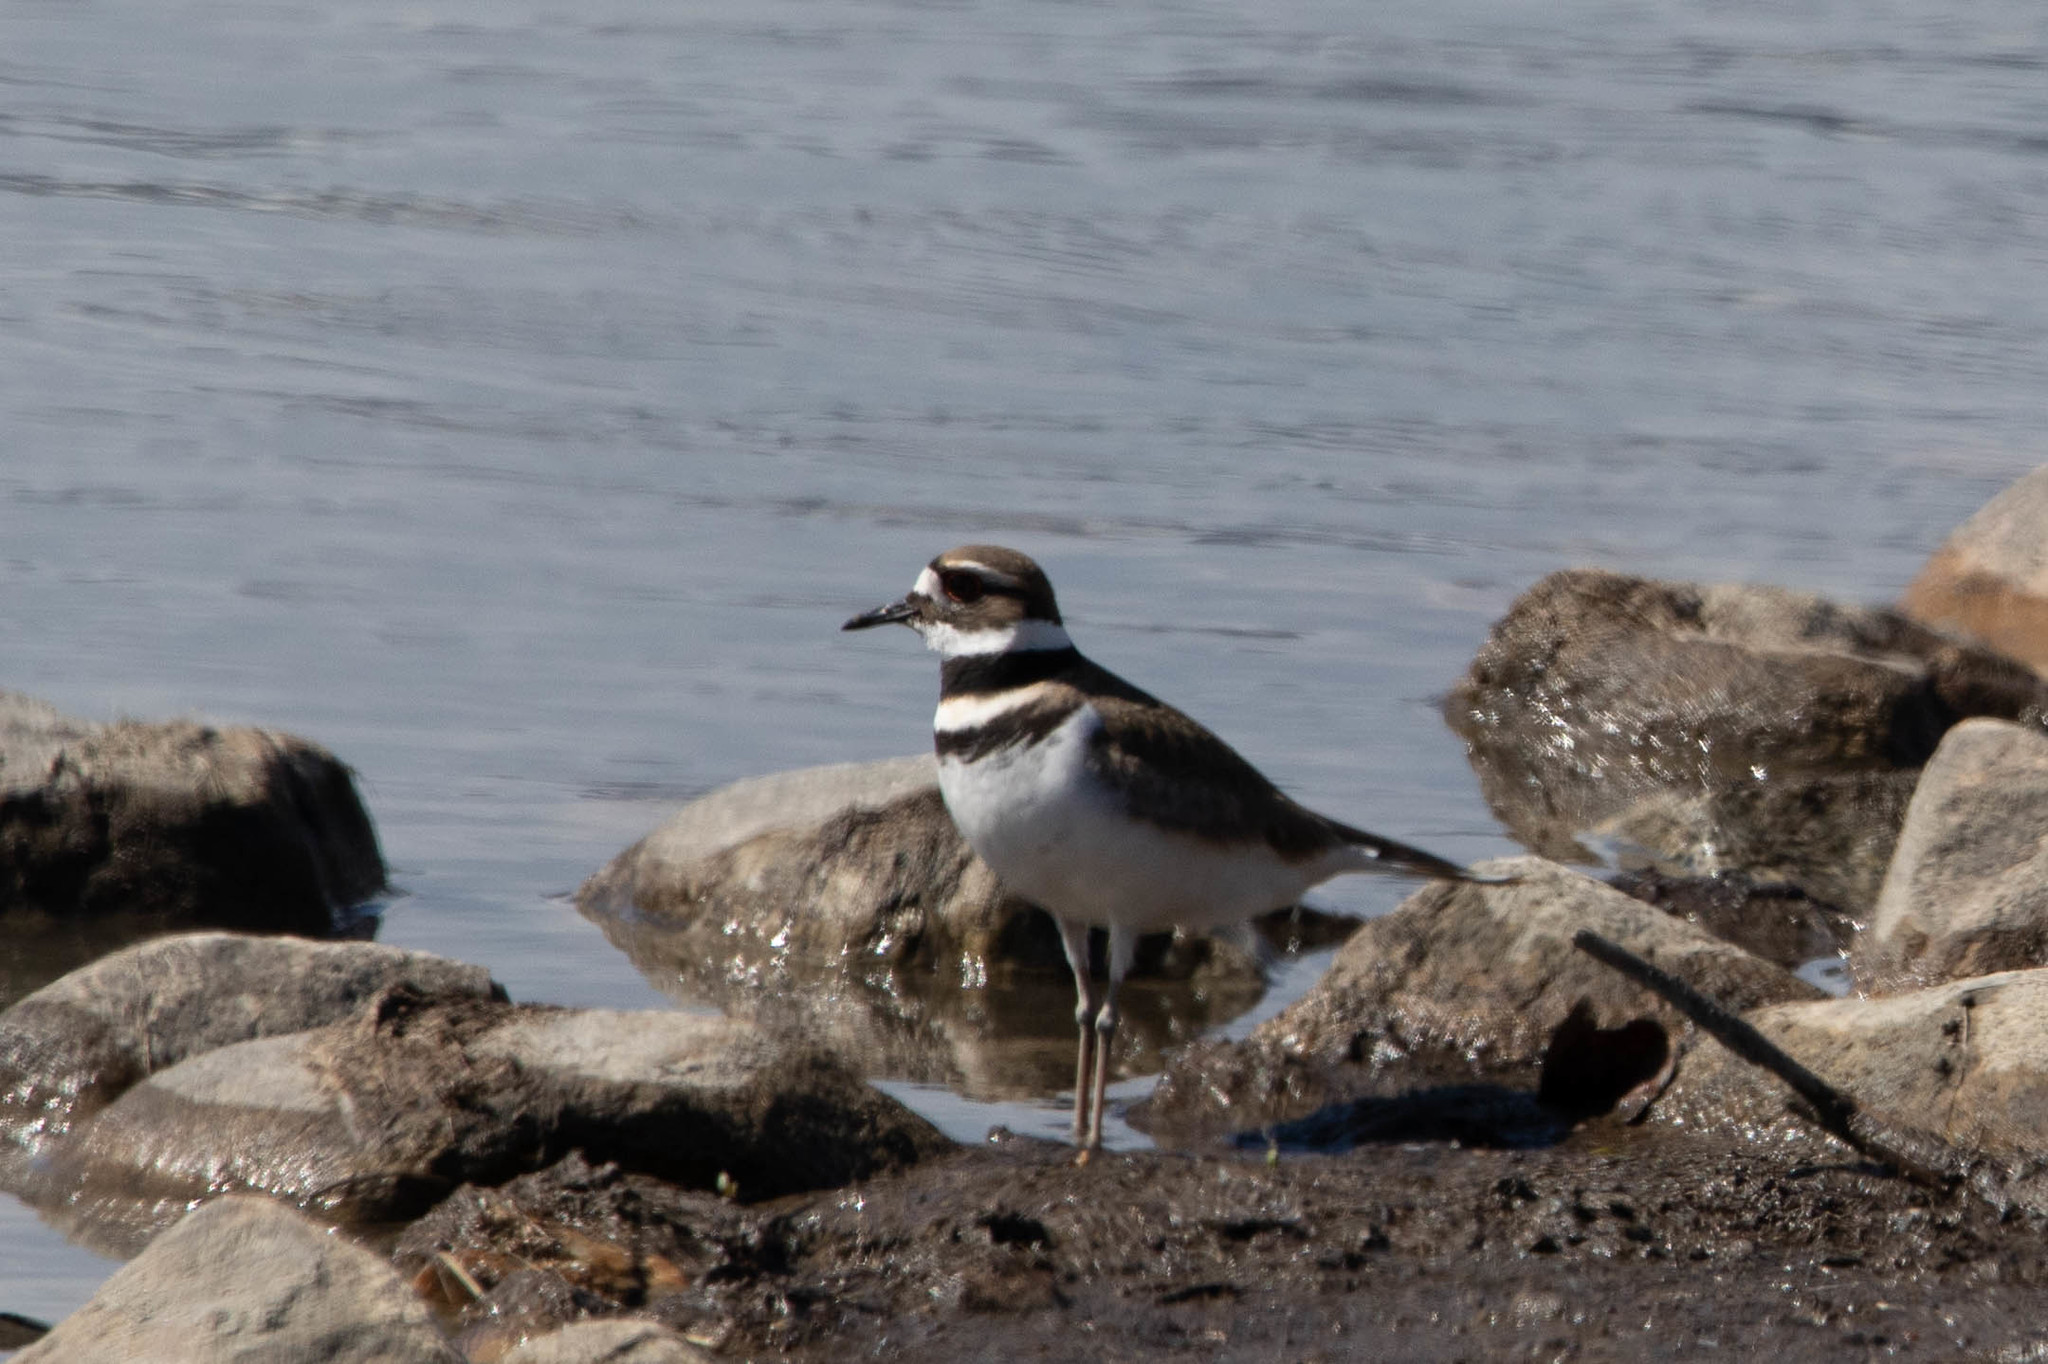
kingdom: Animalia
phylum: Chordata
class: Aves
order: Charadriiformes
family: Charadriidae
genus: Charadrius
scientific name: Charadrius vociferus
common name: Killdeer
